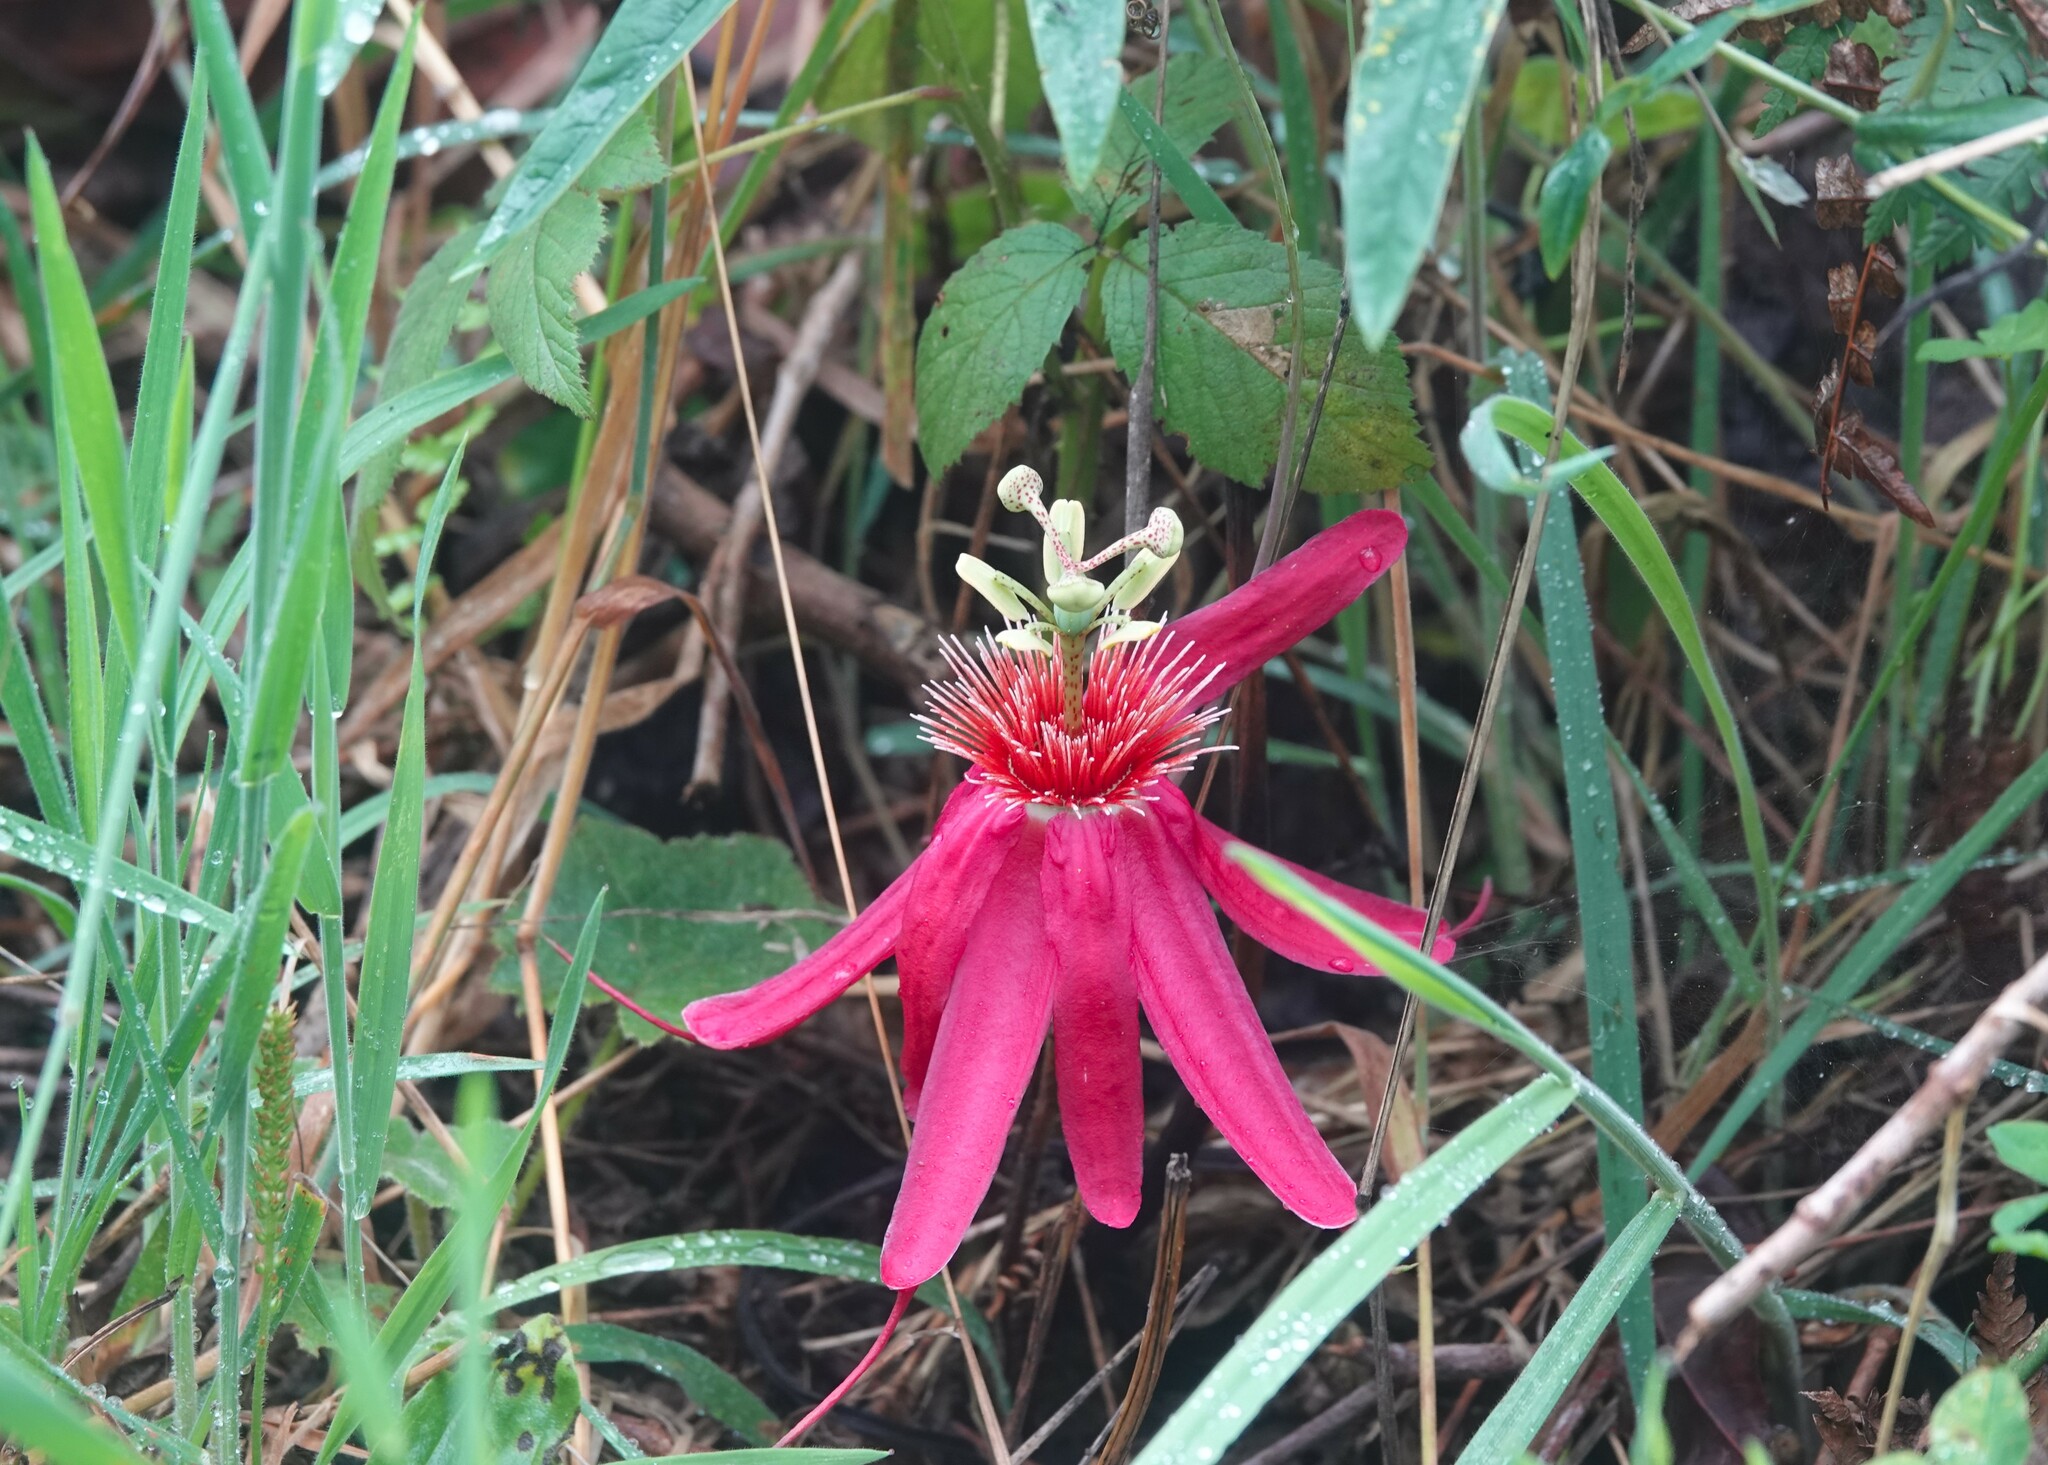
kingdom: Plantae
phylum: Tracheophyta
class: Magnoliopsida
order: Malpighiales
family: Passifloraceae
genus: Passiflora
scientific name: Passiflora semiciliosa
